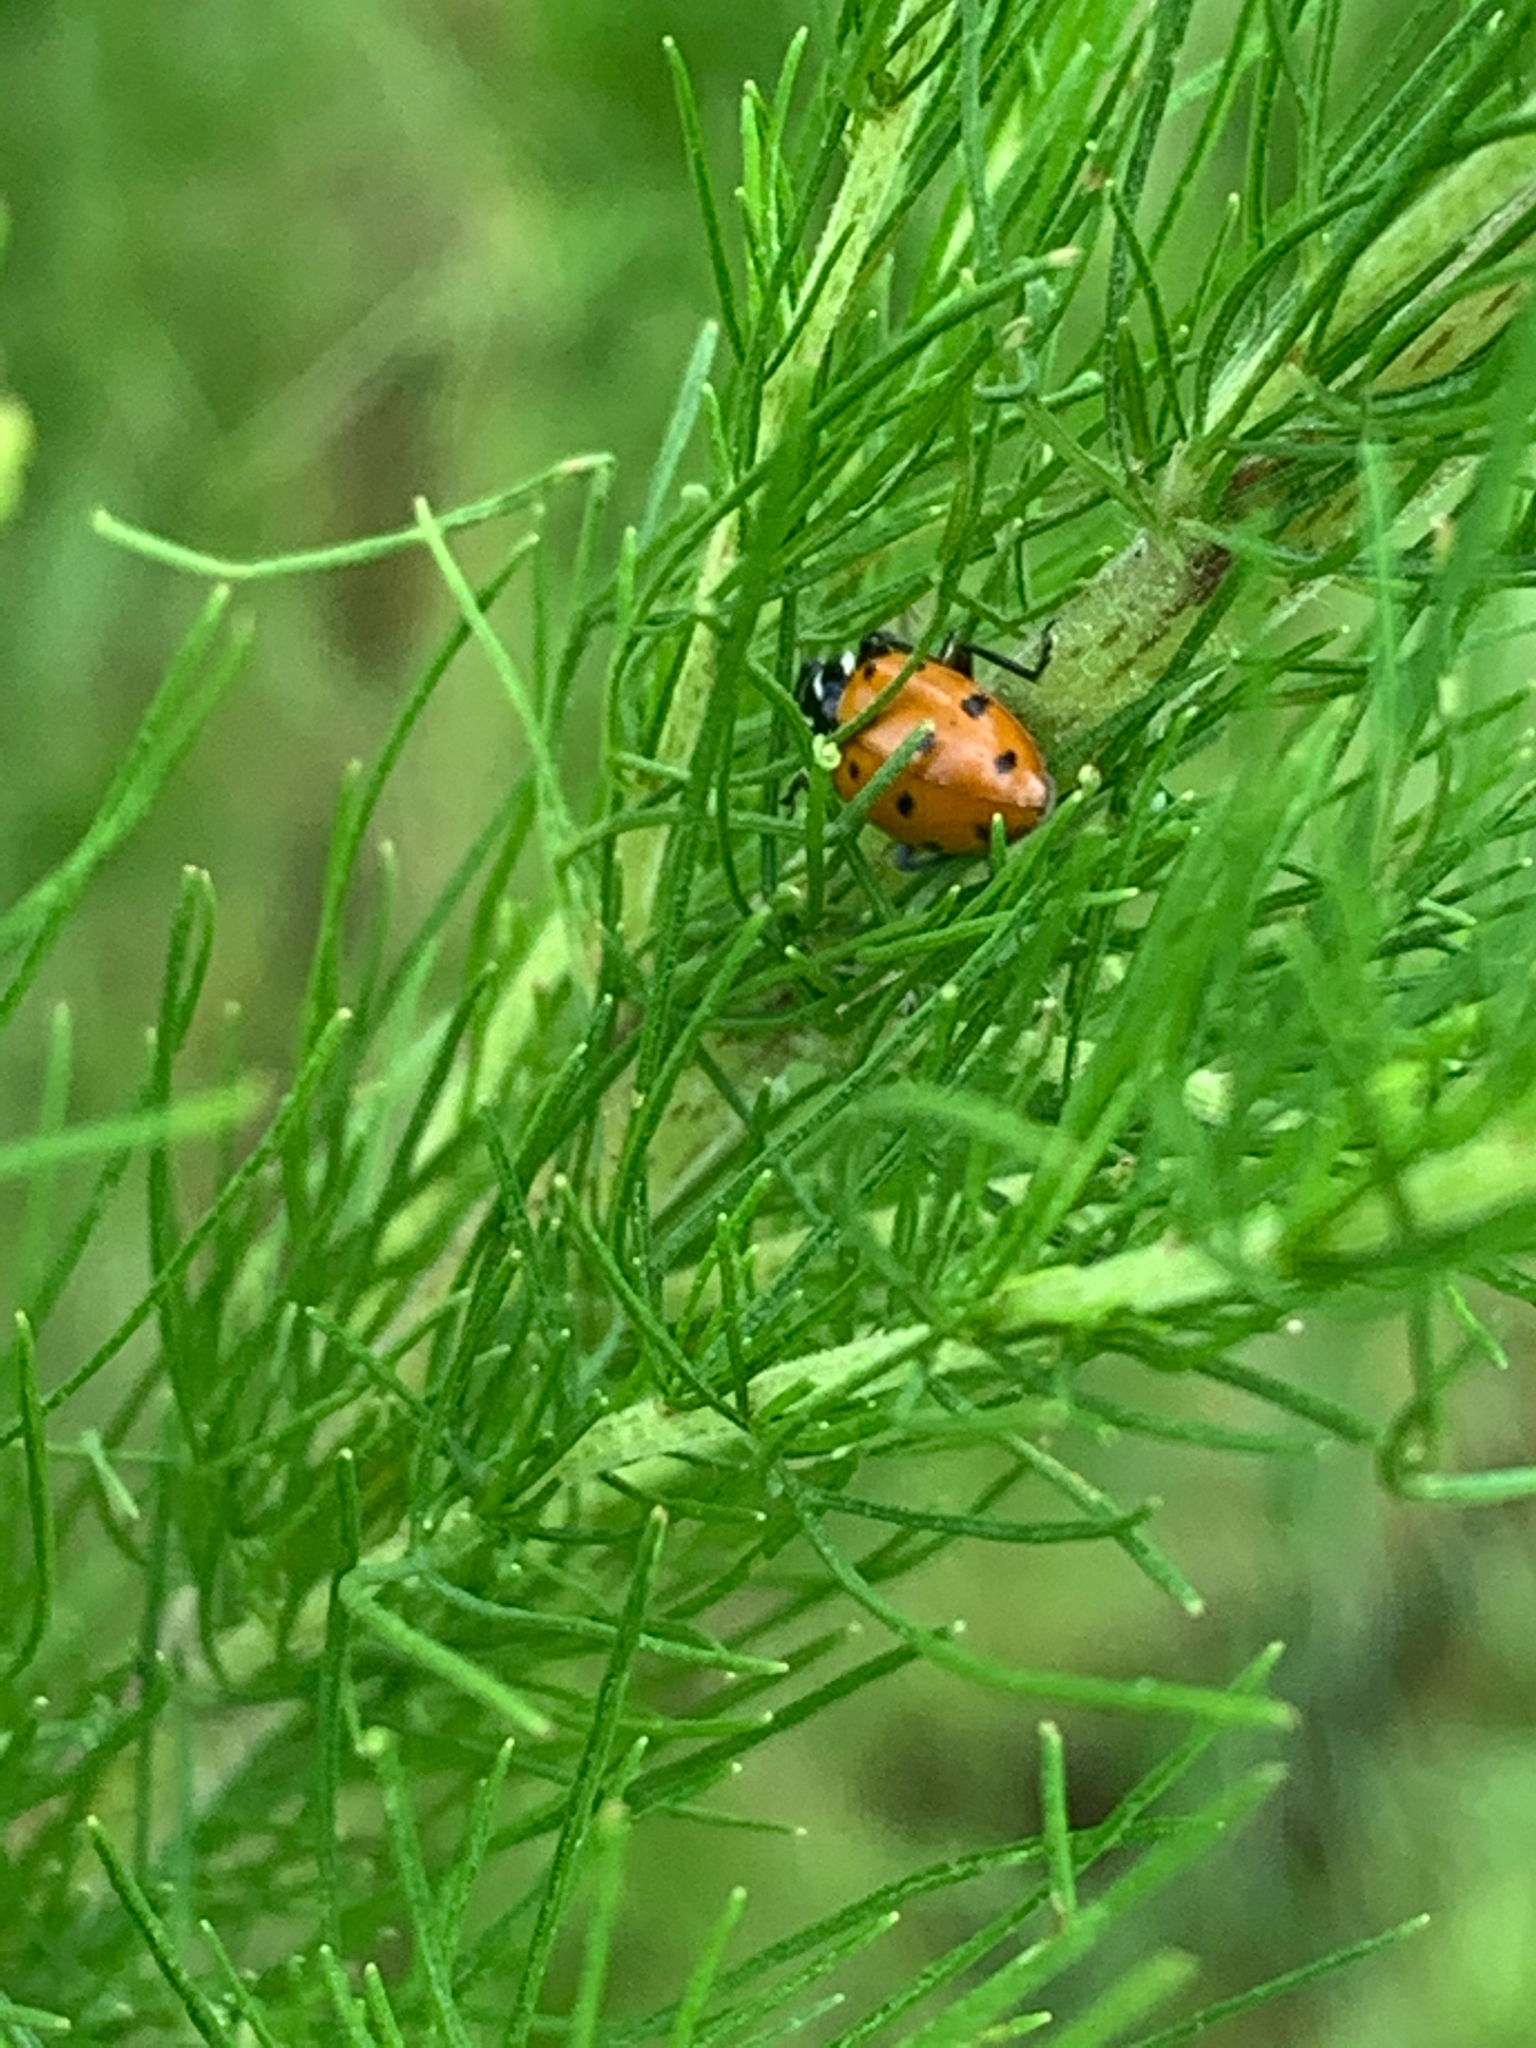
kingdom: Animalia
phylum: Arthropoda
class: Insecta
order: Coleoptera
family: Coccinellidae
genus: Hippodamia
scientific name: Hippodamia convergens
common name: Convergent lady beetle
